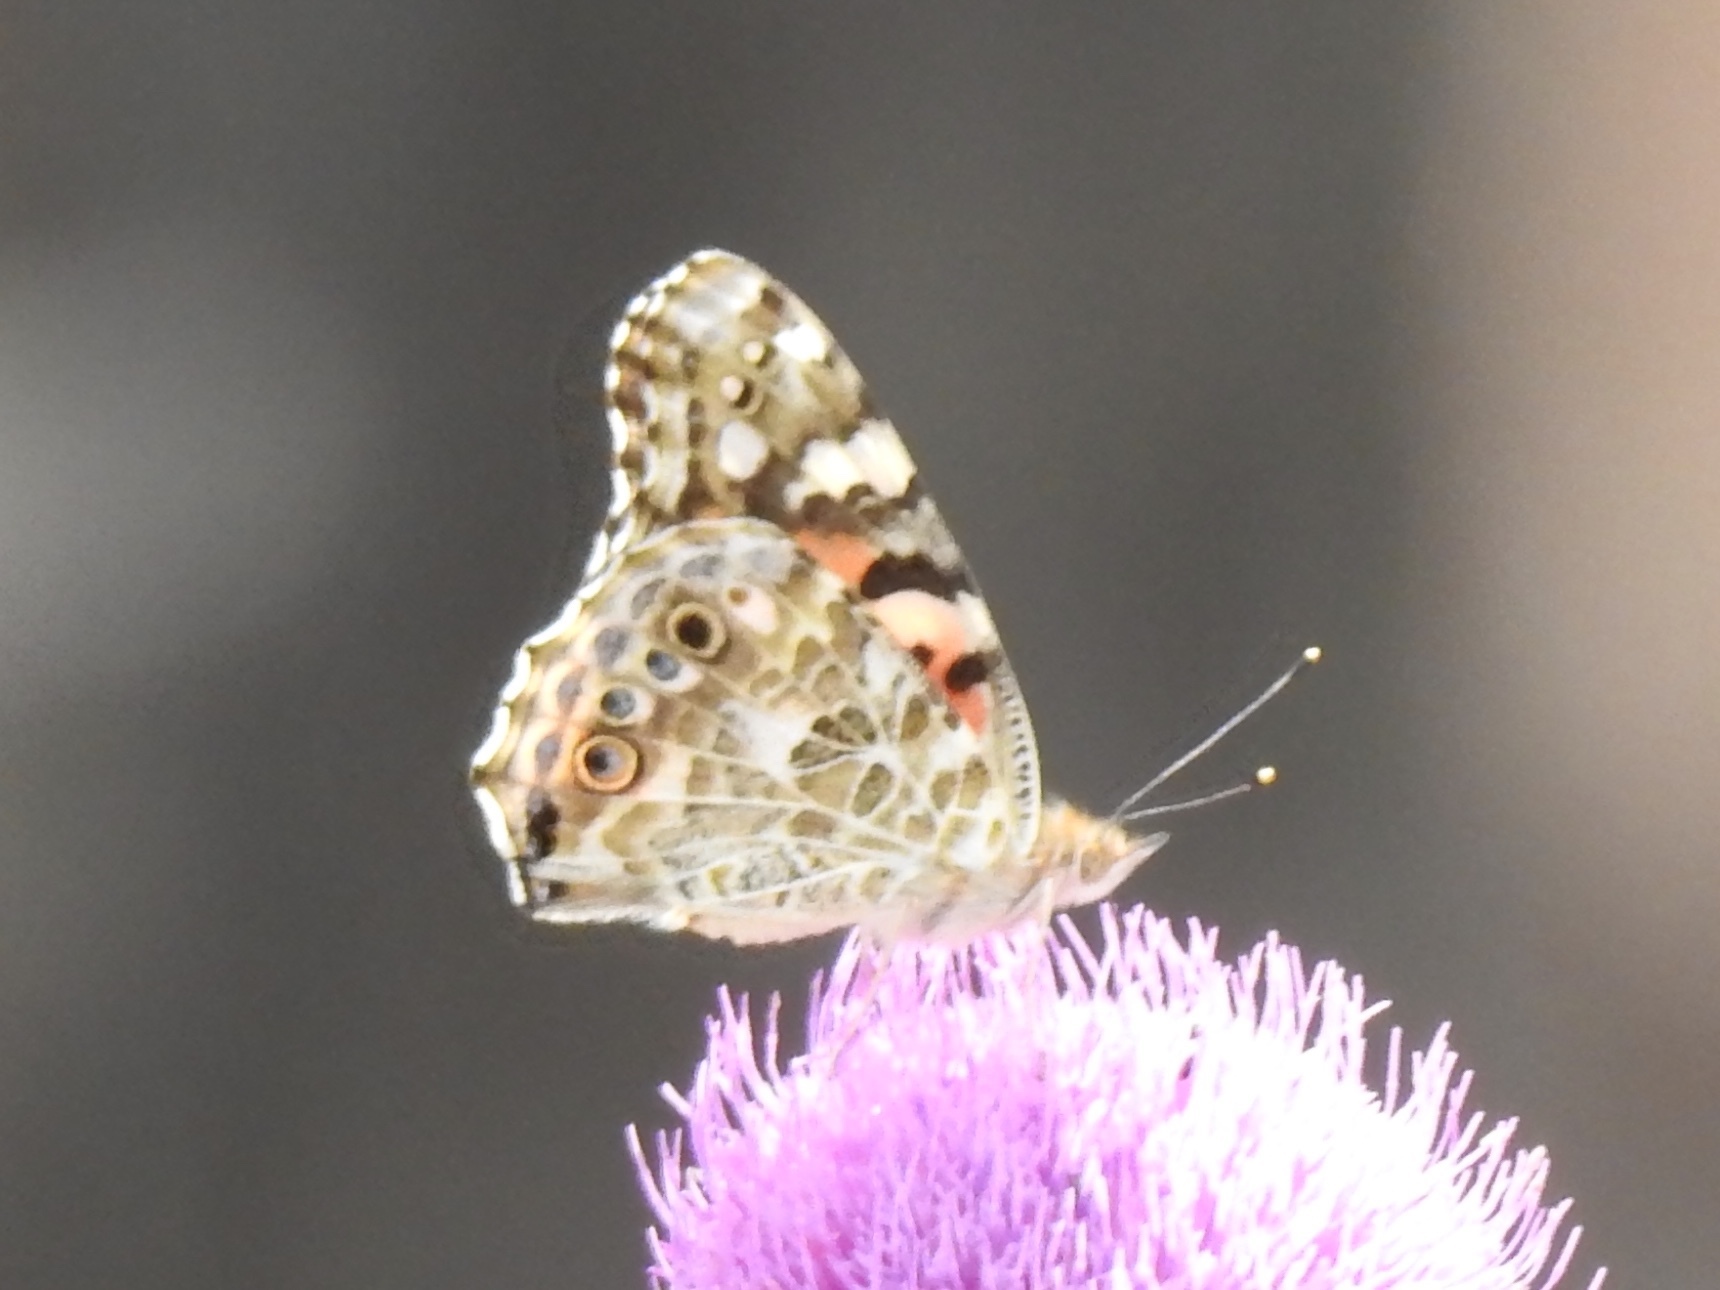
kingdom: Animalia
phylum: Arthropoda
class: Insecta
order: Lepidoptera
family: Nymphalidae
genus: Vanessa
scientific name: Vanessa cardui
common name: Painted lady
